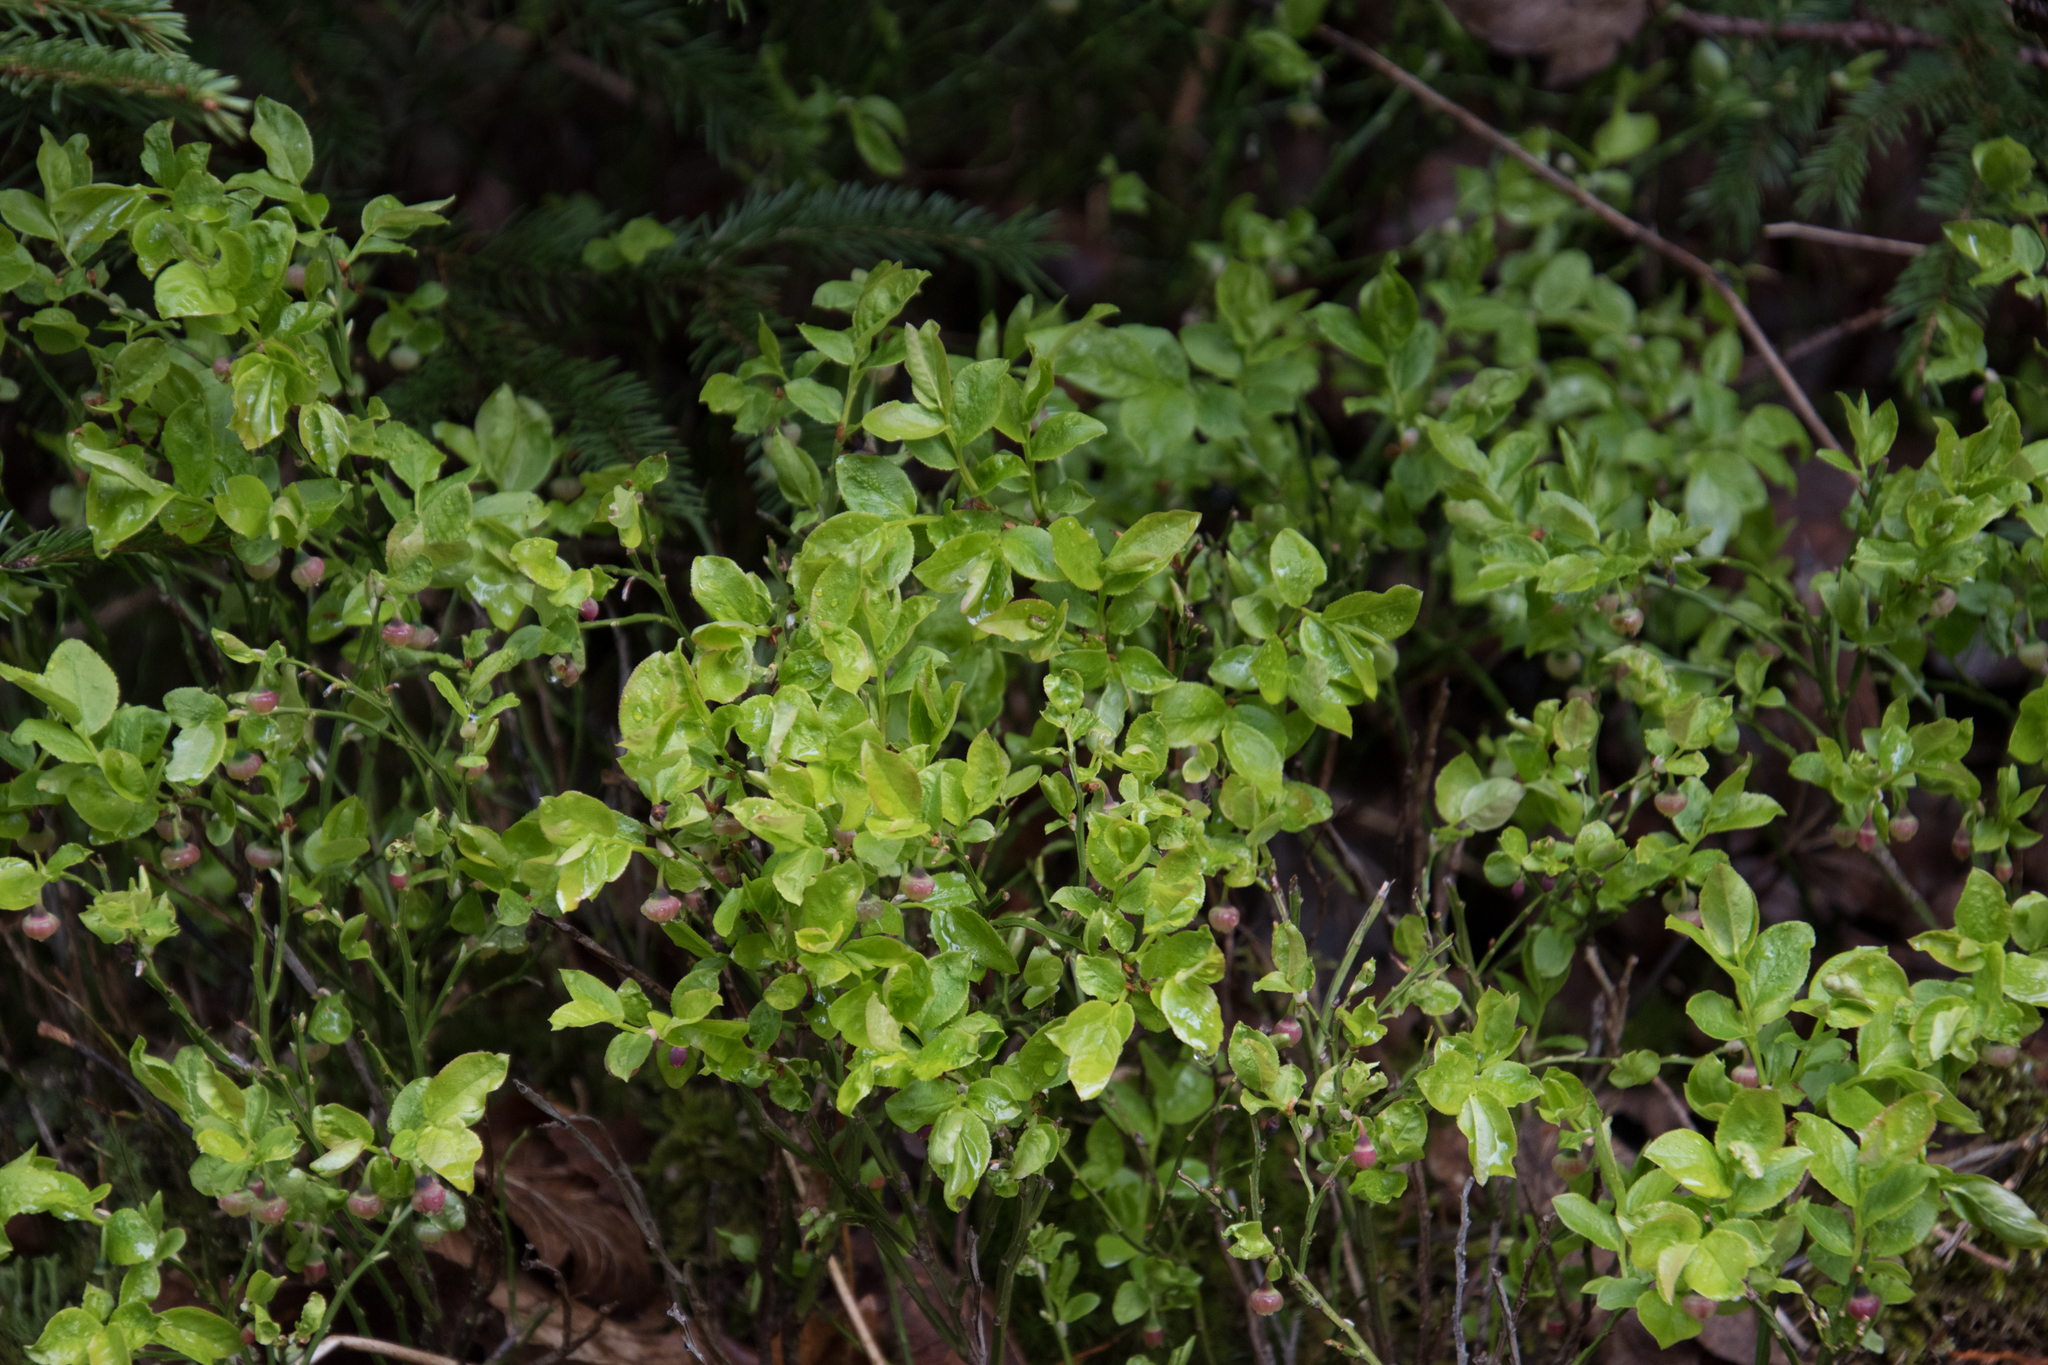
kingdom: Plantae
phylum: Tracheophyta
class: Magnoliopsida
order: Ericales
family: Ericaceae
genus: Vaccinium
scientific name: Vaccinium myrtillus
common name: Bilberry
